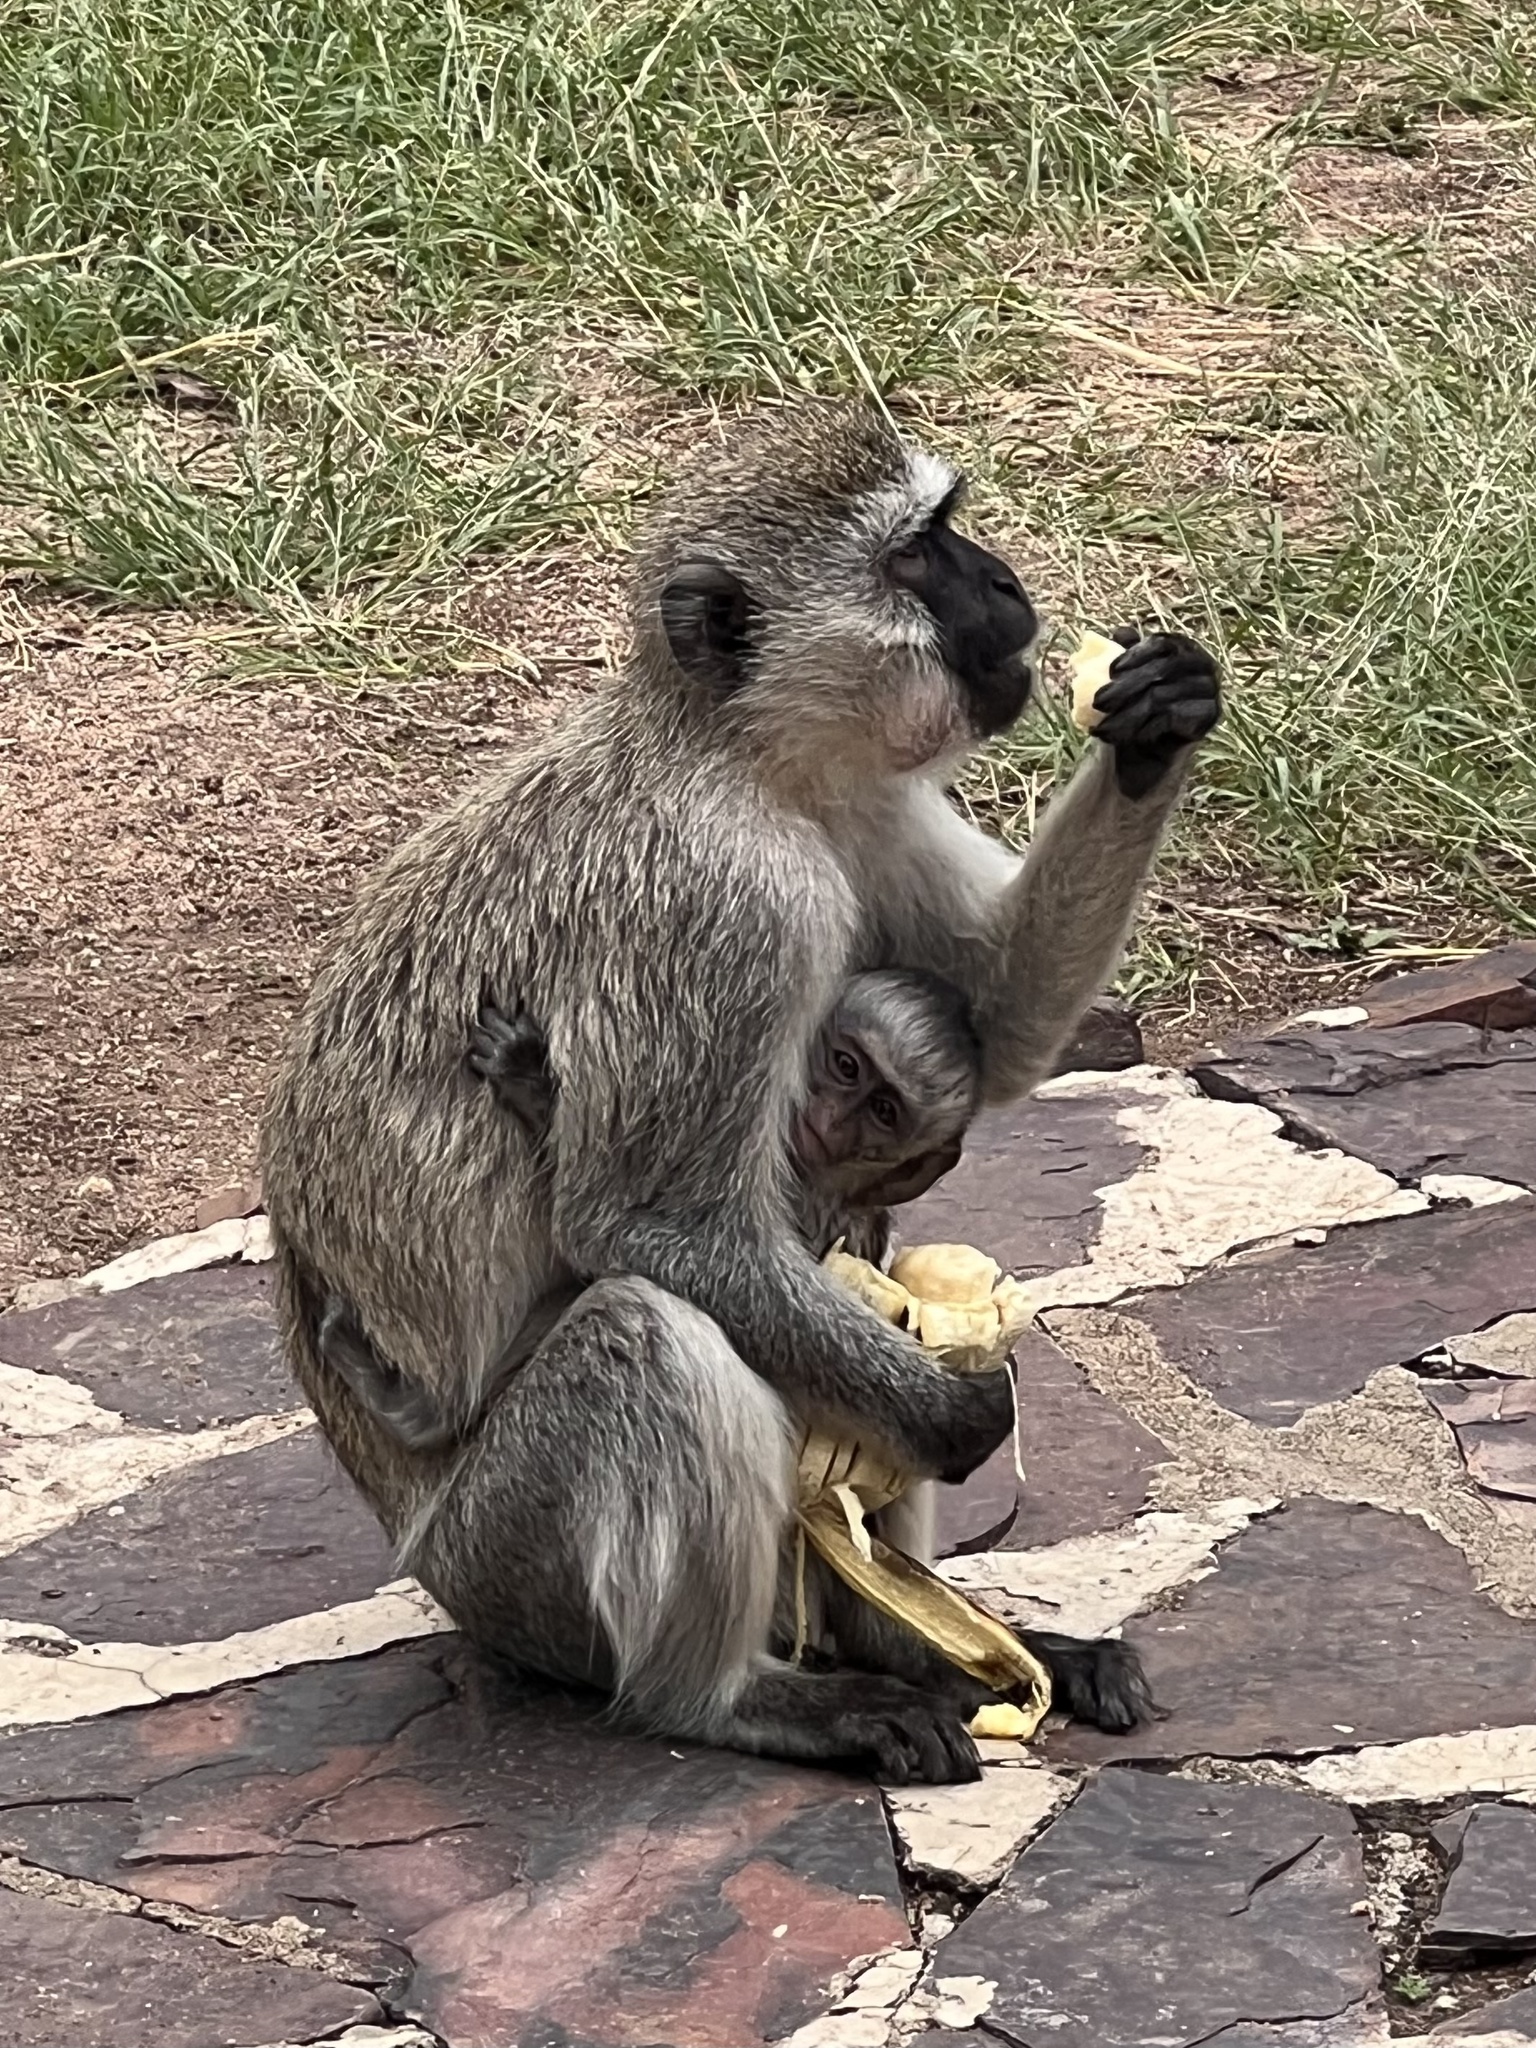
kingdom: Animalia
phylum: Chordata
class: Mammalia
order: Primates
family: Cercopithecidae
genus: Chlorocebus
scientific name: Chlorocebus pygerythrus
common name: Vervet monkey
